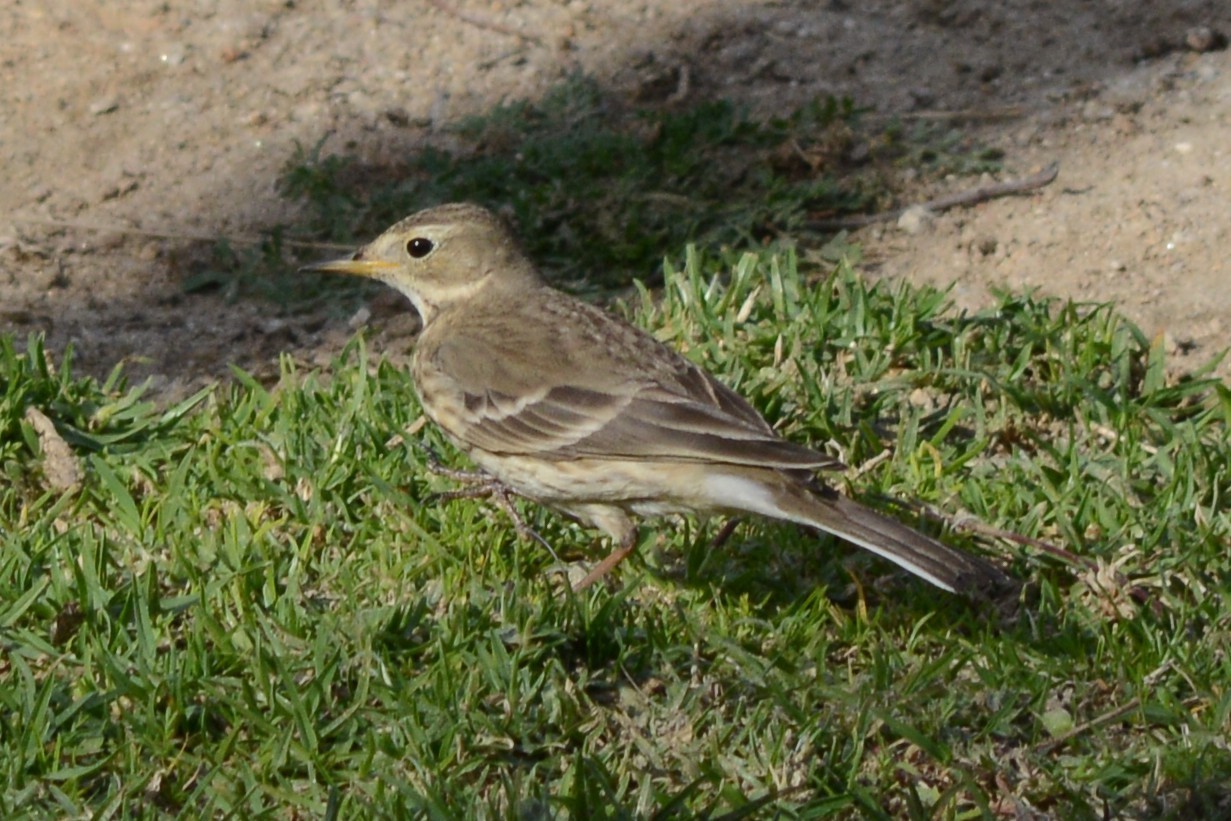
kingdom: Animalia
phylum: Chordata
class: Aves
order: Passeriformes
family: Motacillidae
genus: Anthus
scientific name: Anthus rubescens
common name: Buff-bellied pipit
